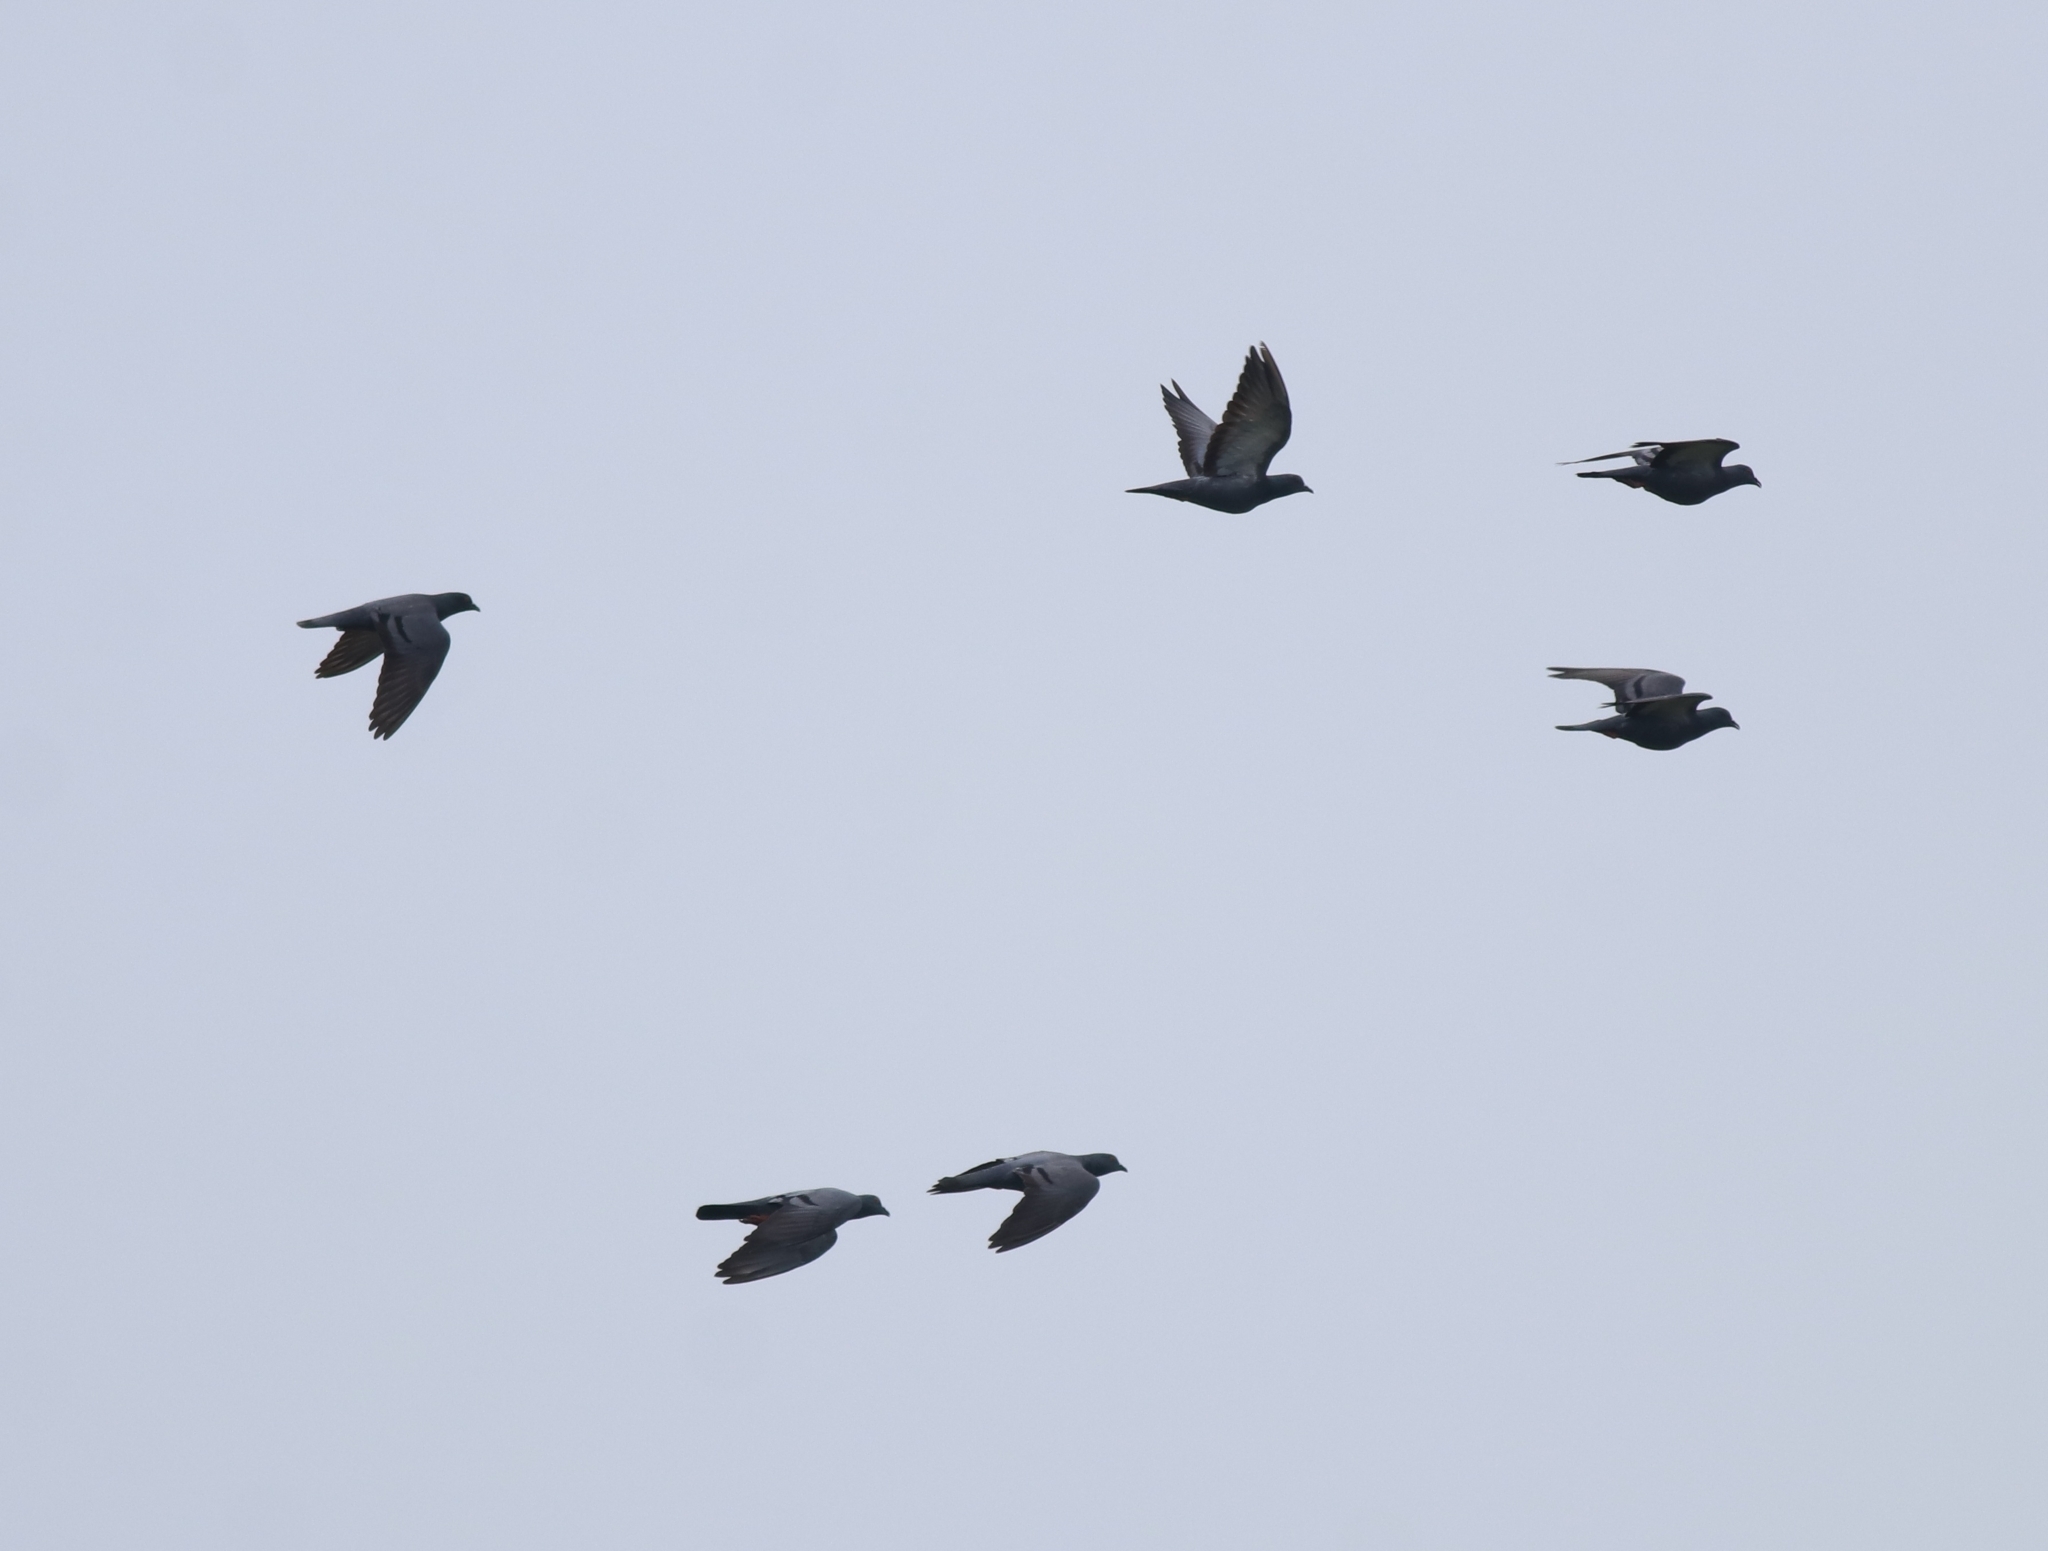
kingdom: Animalia
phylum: Chordata
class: Aves
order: Columbiformes
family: Columbidae
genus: Columba
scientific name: Columba livia
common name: Rock pigeon
